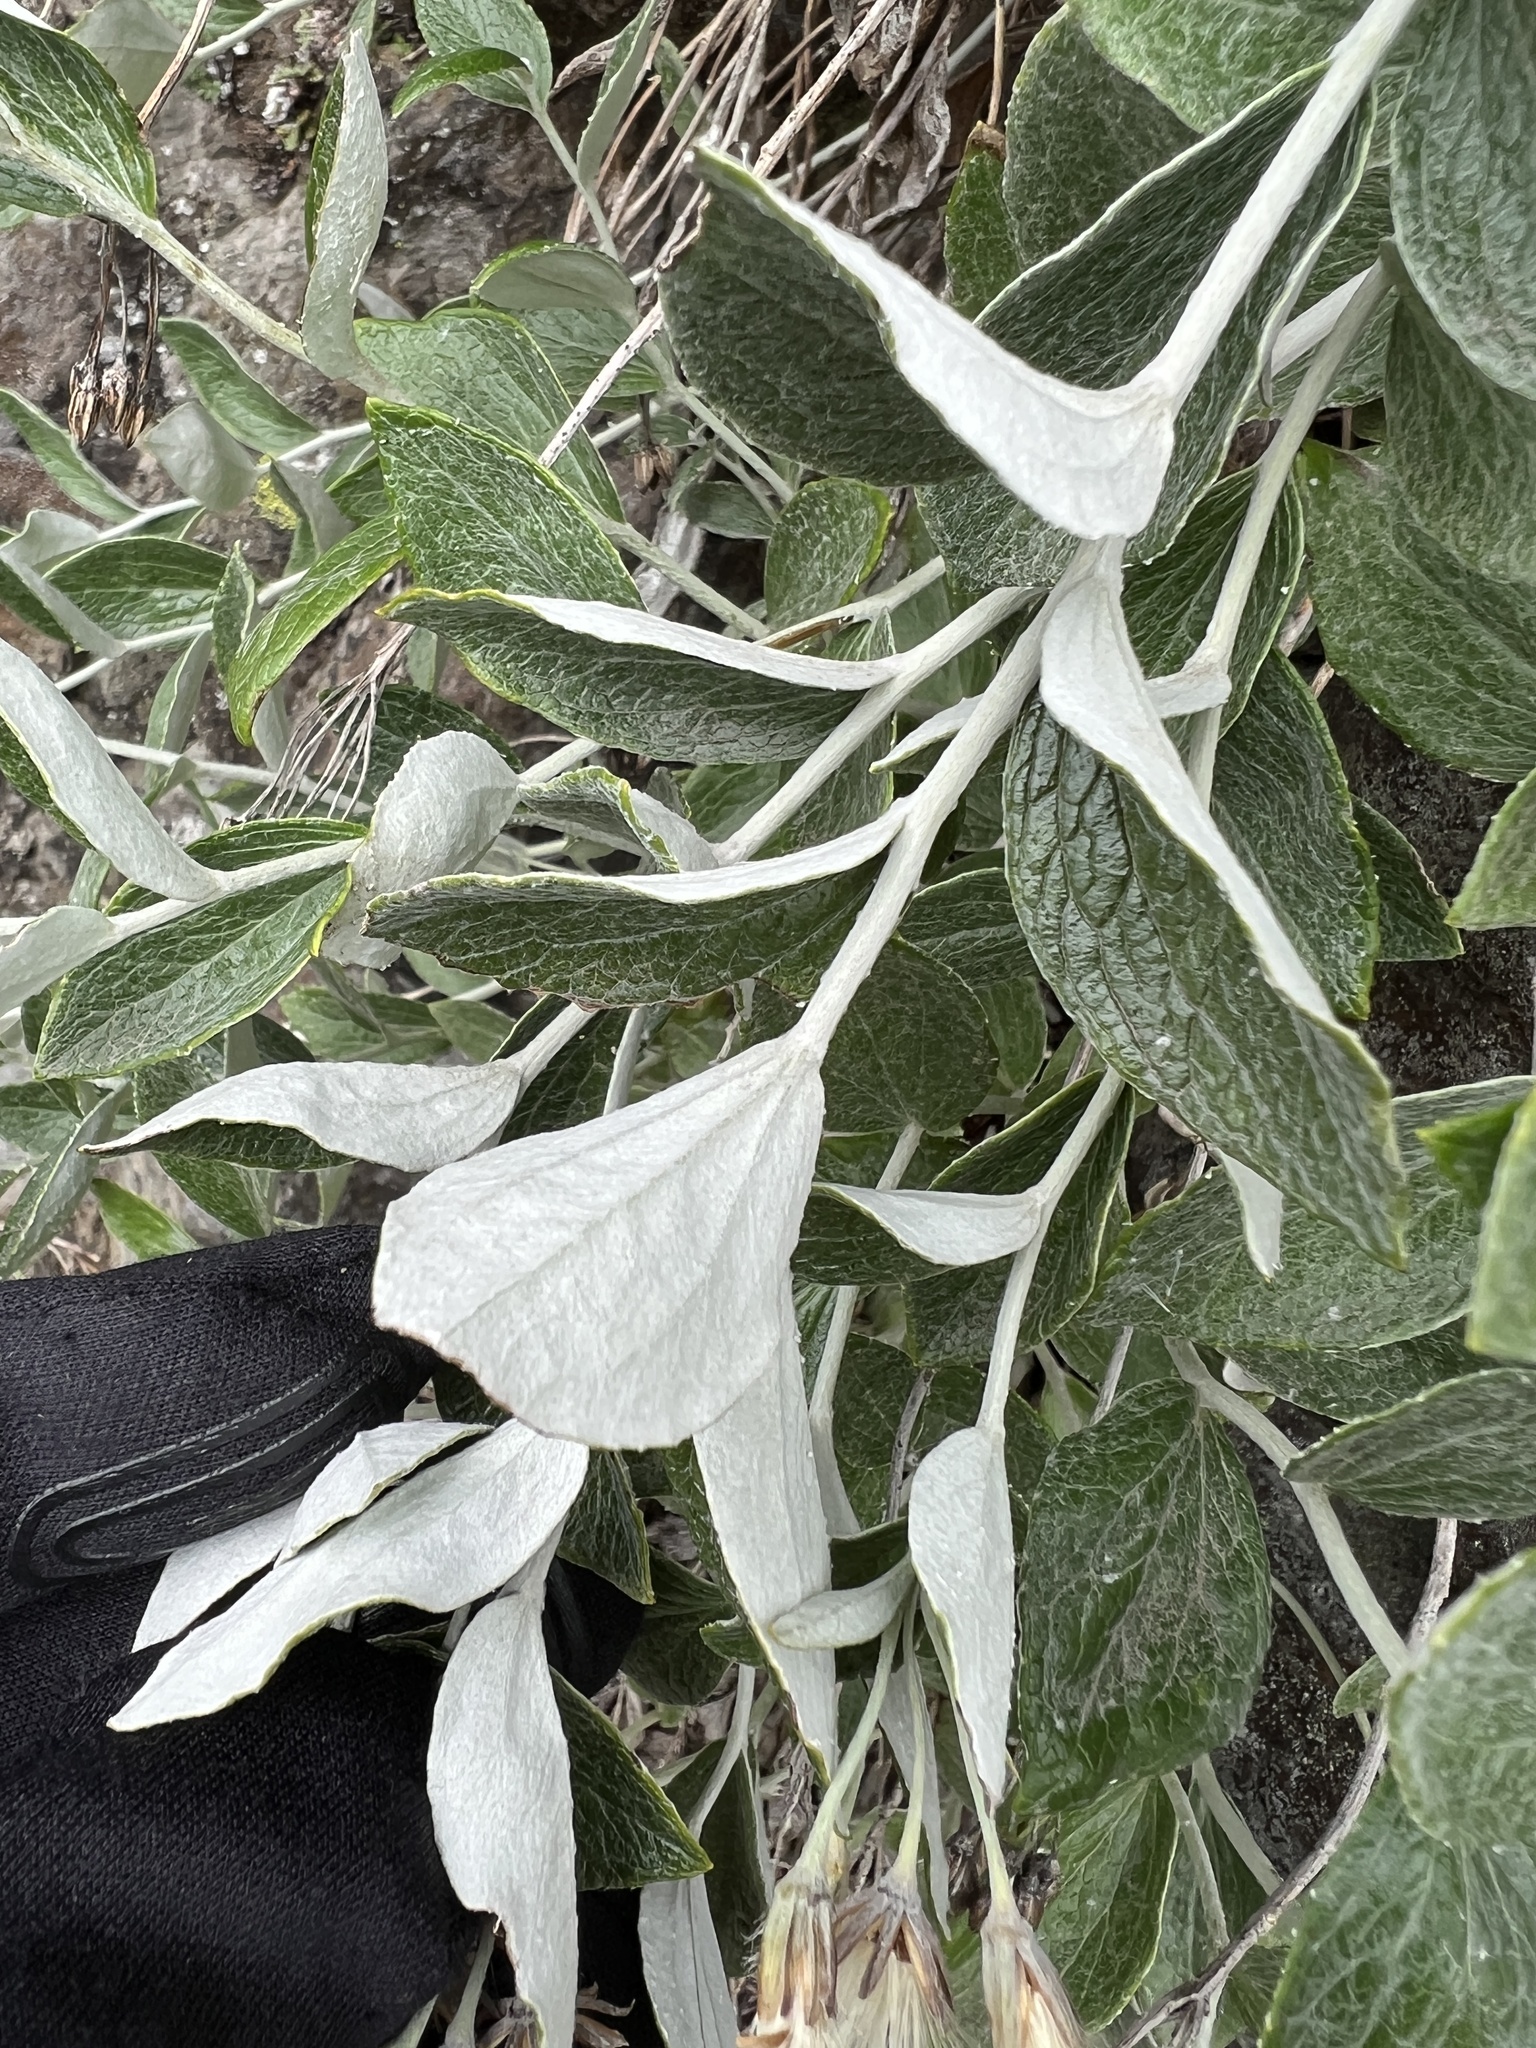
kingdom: Plantae
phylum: Tracheophyta
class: Magnoliopsida
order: Asterales
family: Asteraceae
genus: Luina
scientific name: Luina hypoleuca
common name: Little-leaved luina
